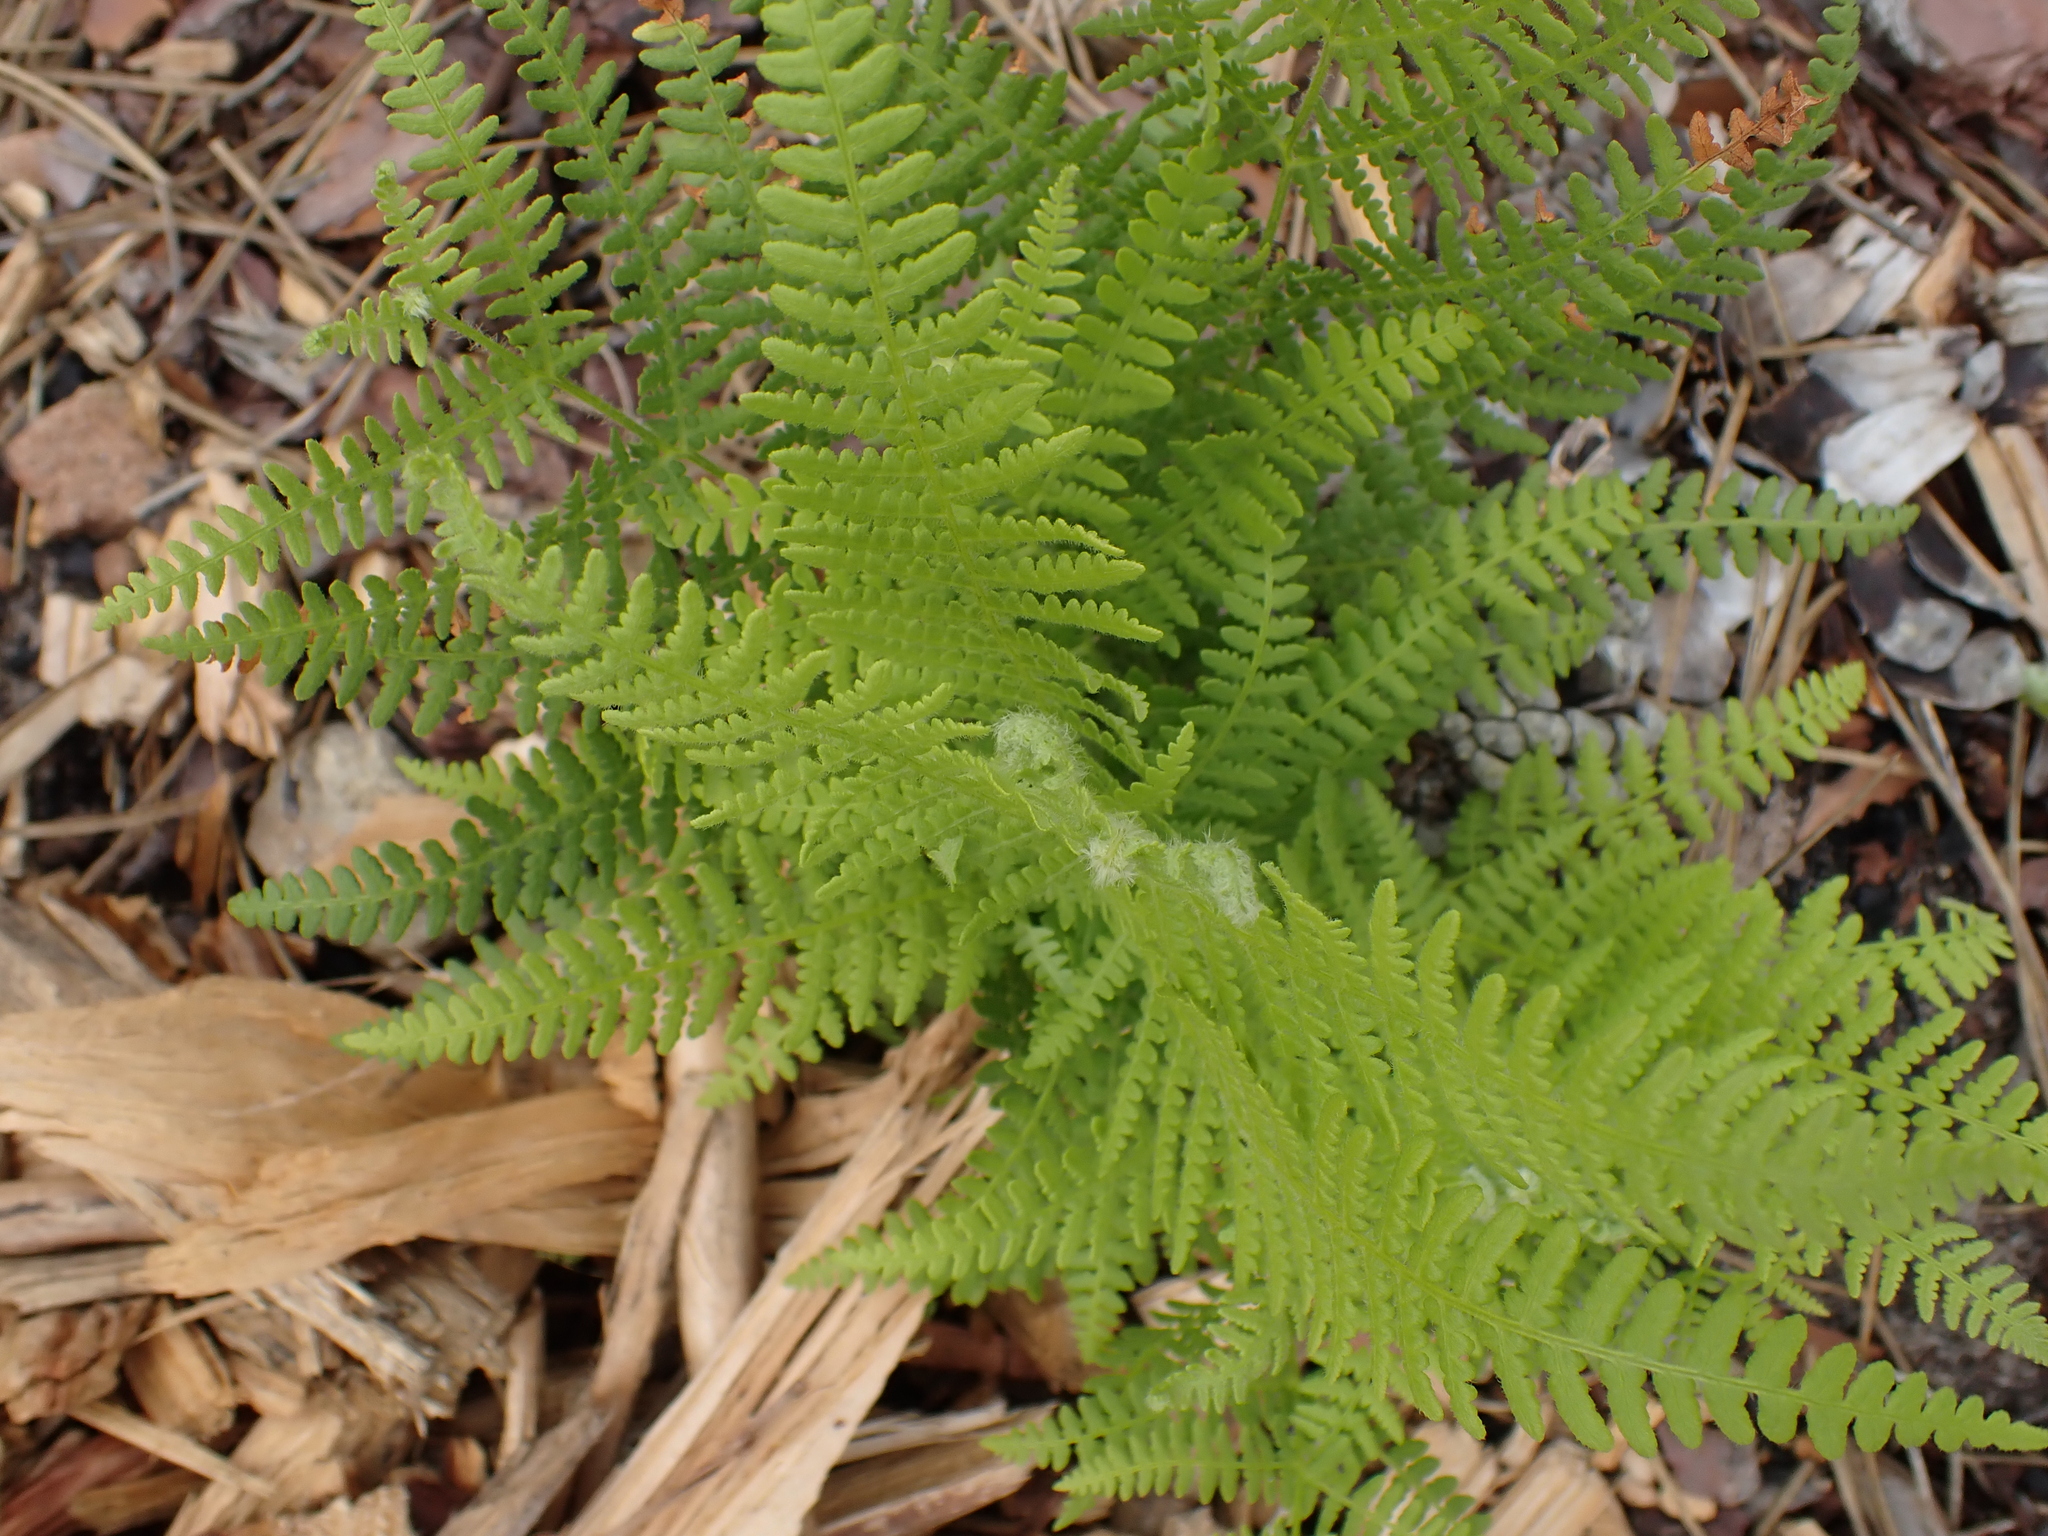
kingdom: Plantae
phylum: Tracheophyta
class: Polypodiopsida
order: Polypodiales
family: Dennstaedtiaceae
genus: Pteridium
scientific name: Pteridium aquilinum
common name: Bracken
